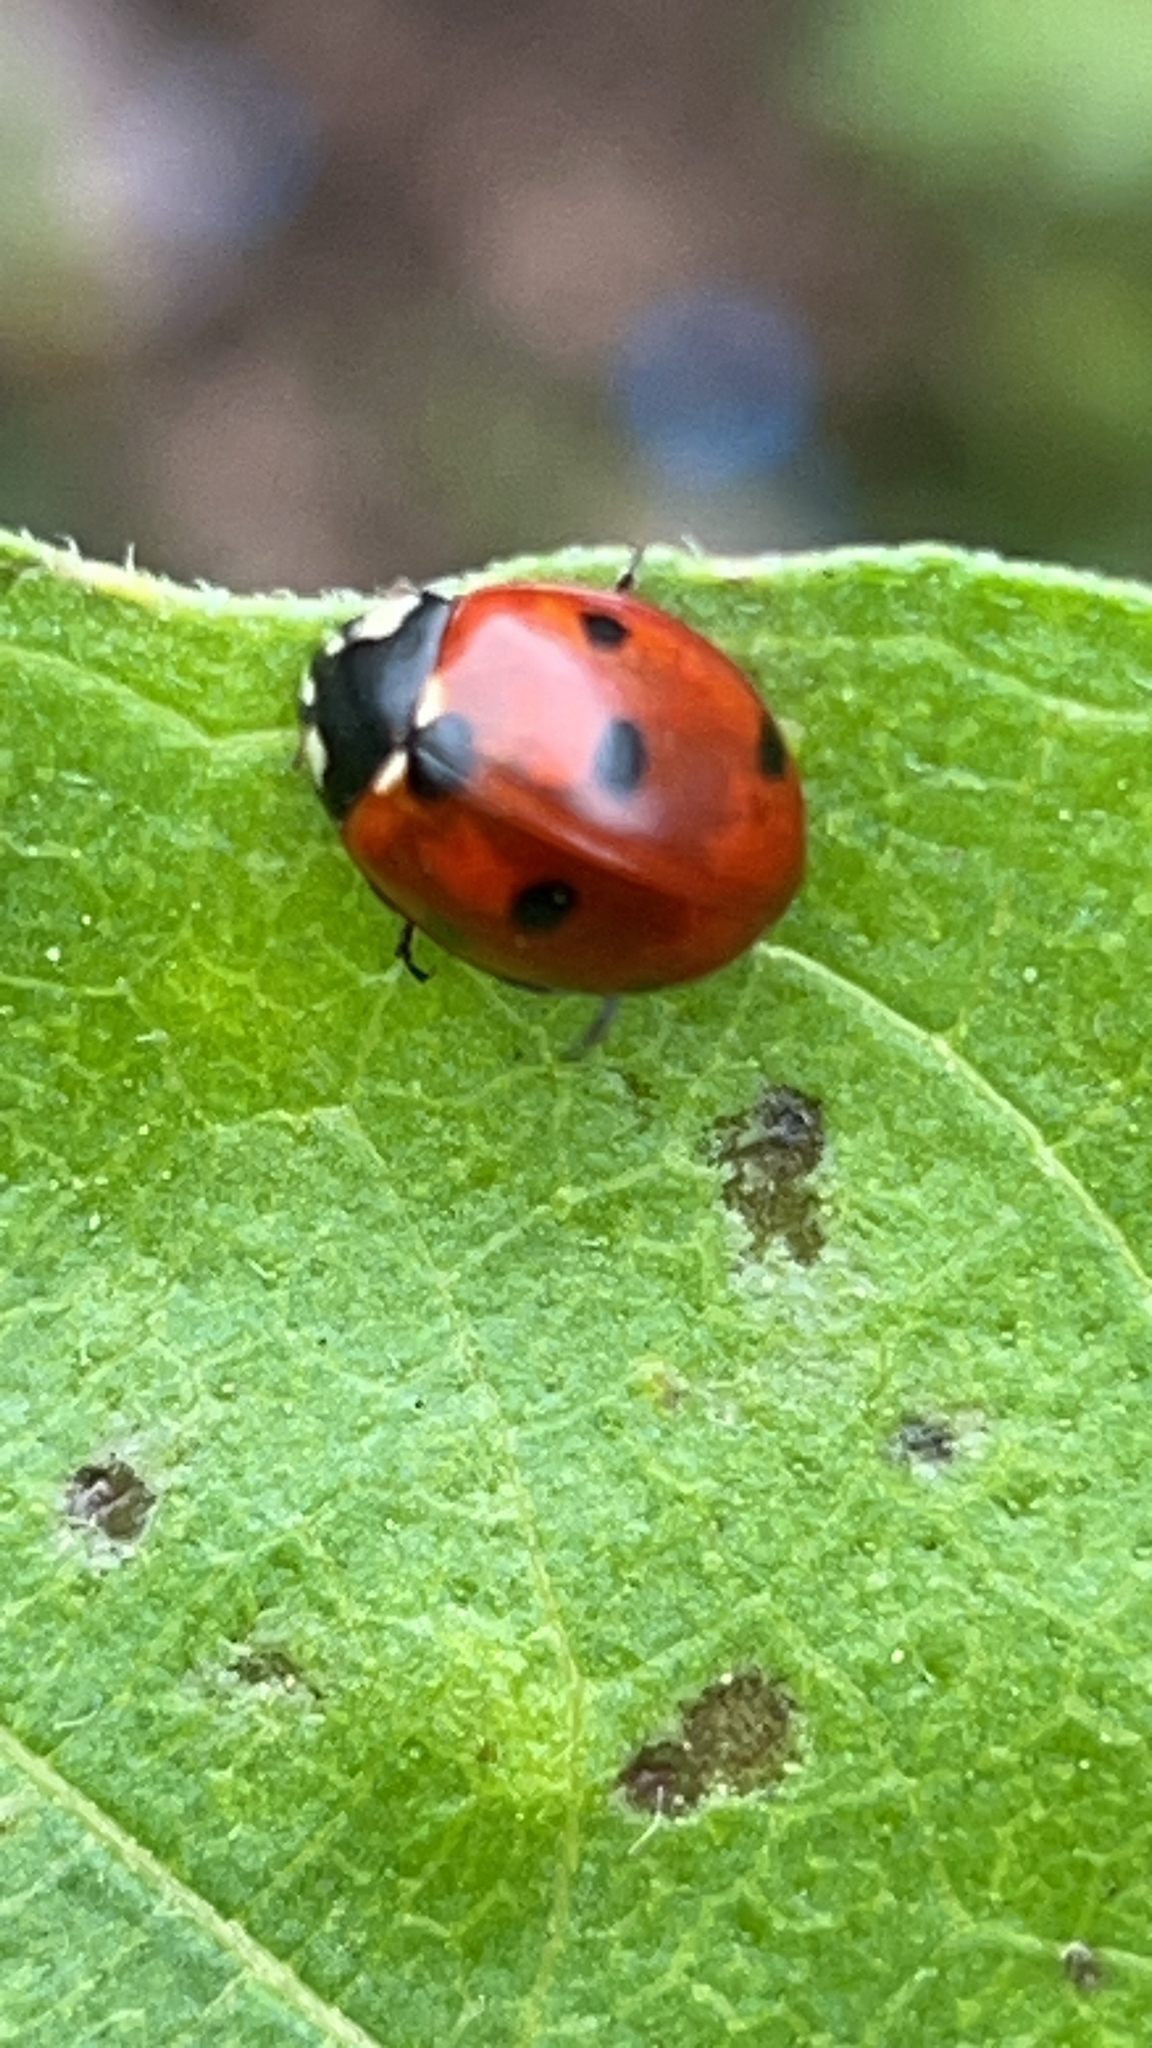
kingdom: Animalia
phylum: Arthropoda
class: Insecta
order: Coleoptera
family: Coccinellidae
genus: Coccinella
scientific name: Coccinella septempunctata
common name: Sevenspotted lady beetle
